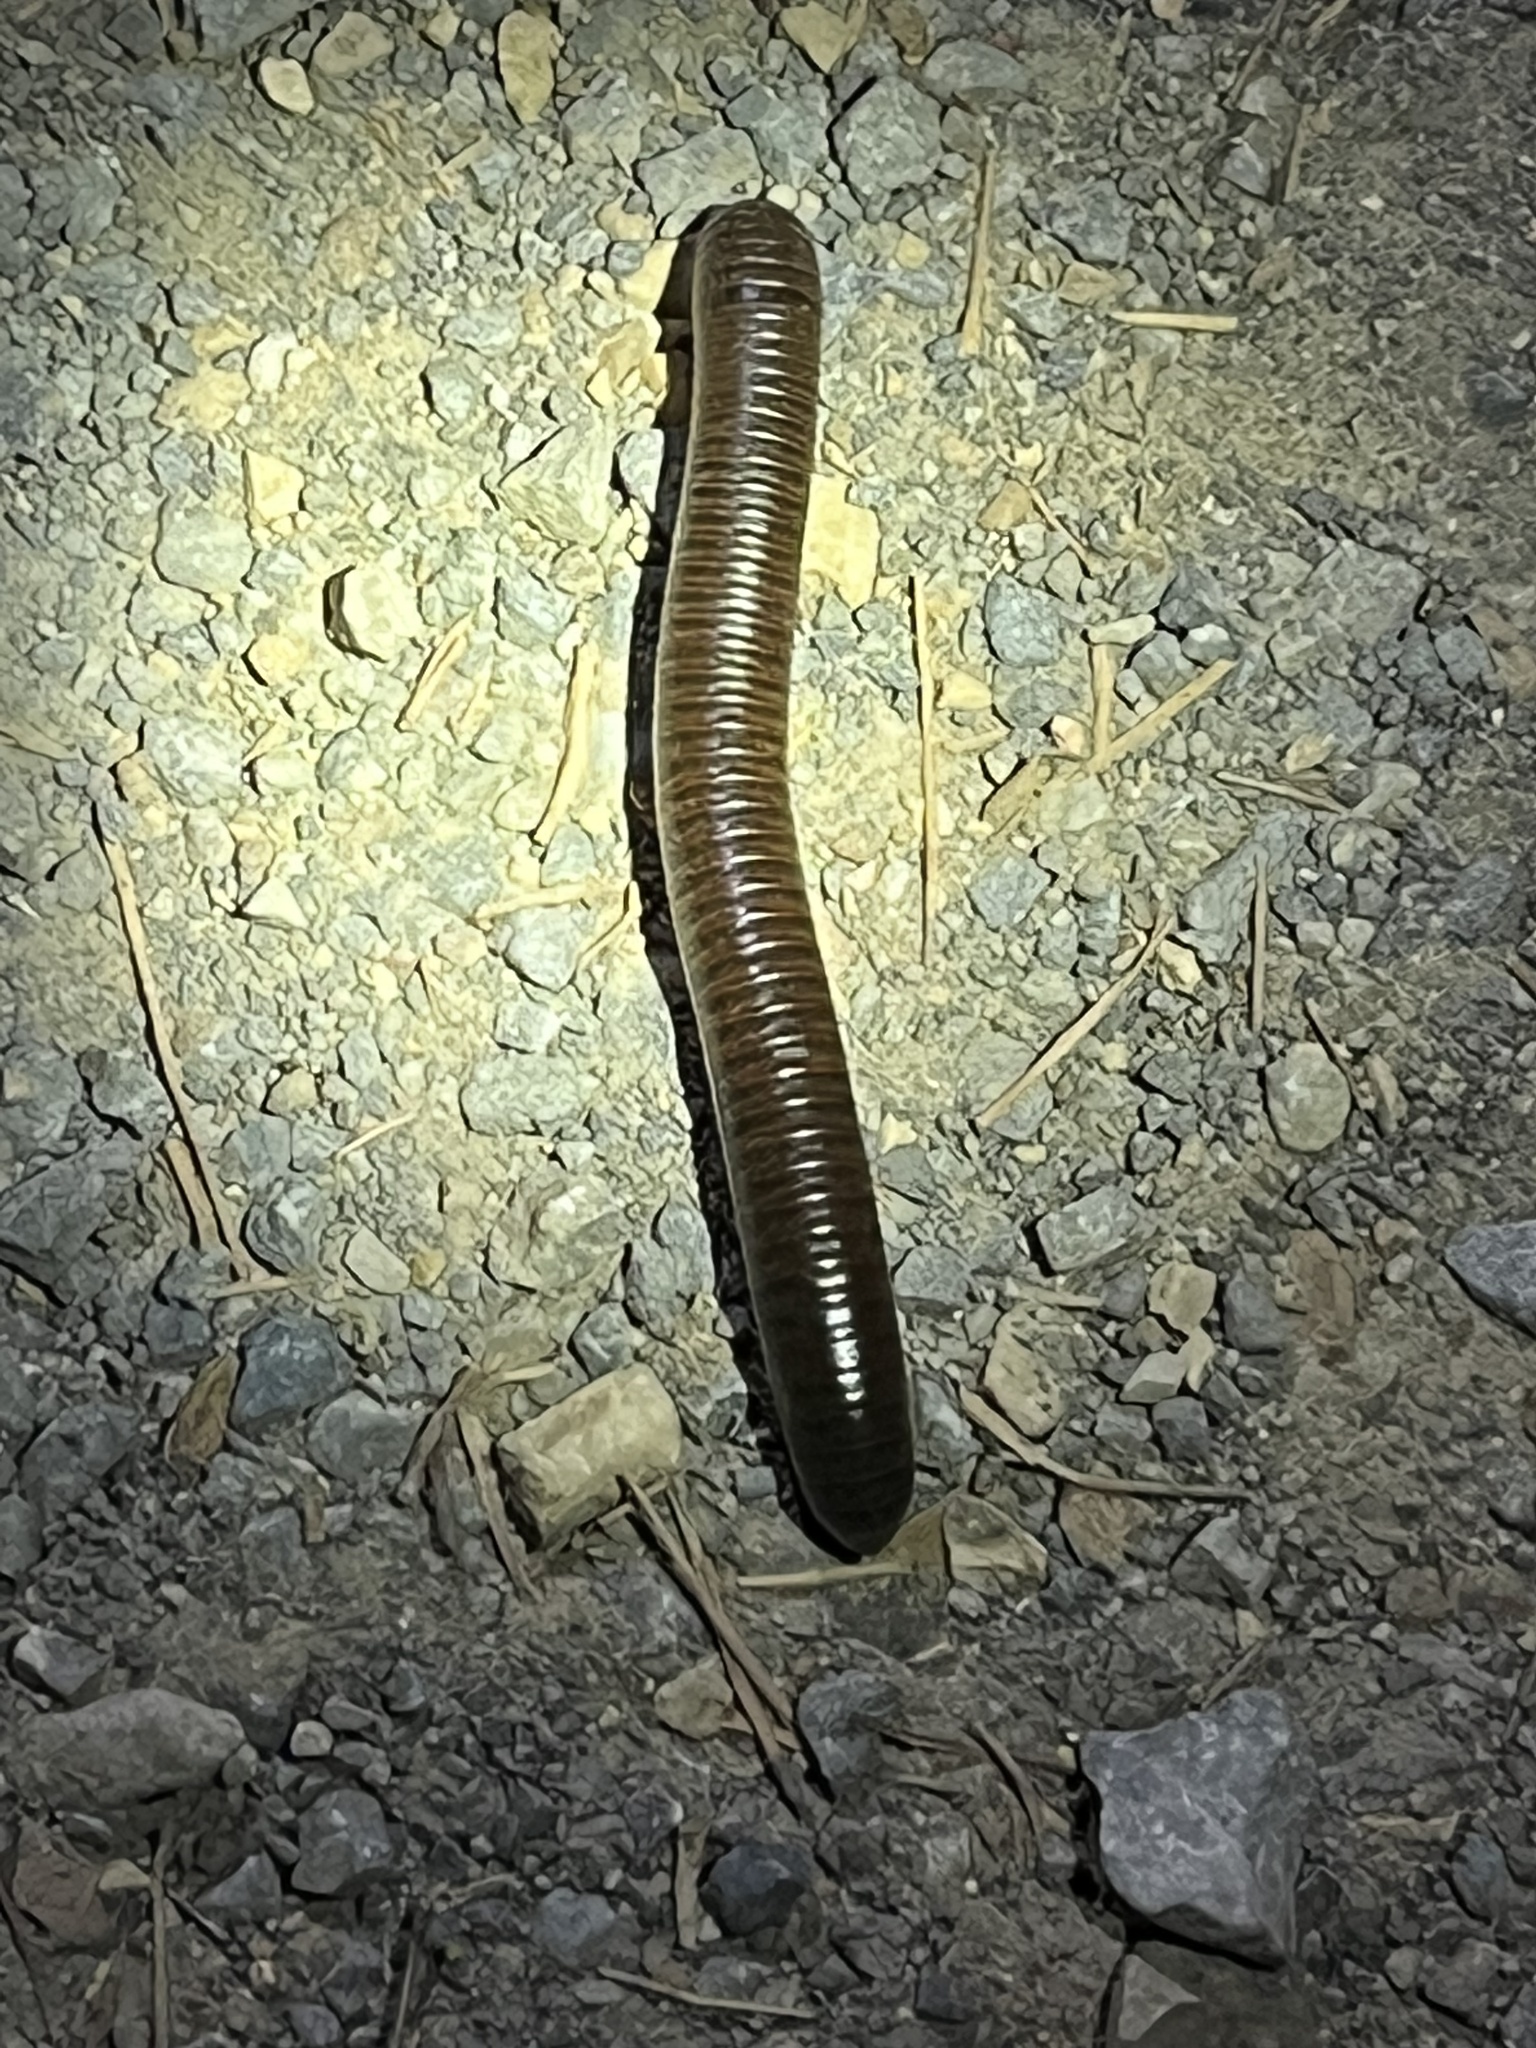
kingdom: Animalia
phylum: Arthropoda
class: Diplopoda
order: Spirobolida
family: Spirobolidae
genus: Narceus
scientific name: Narceus
